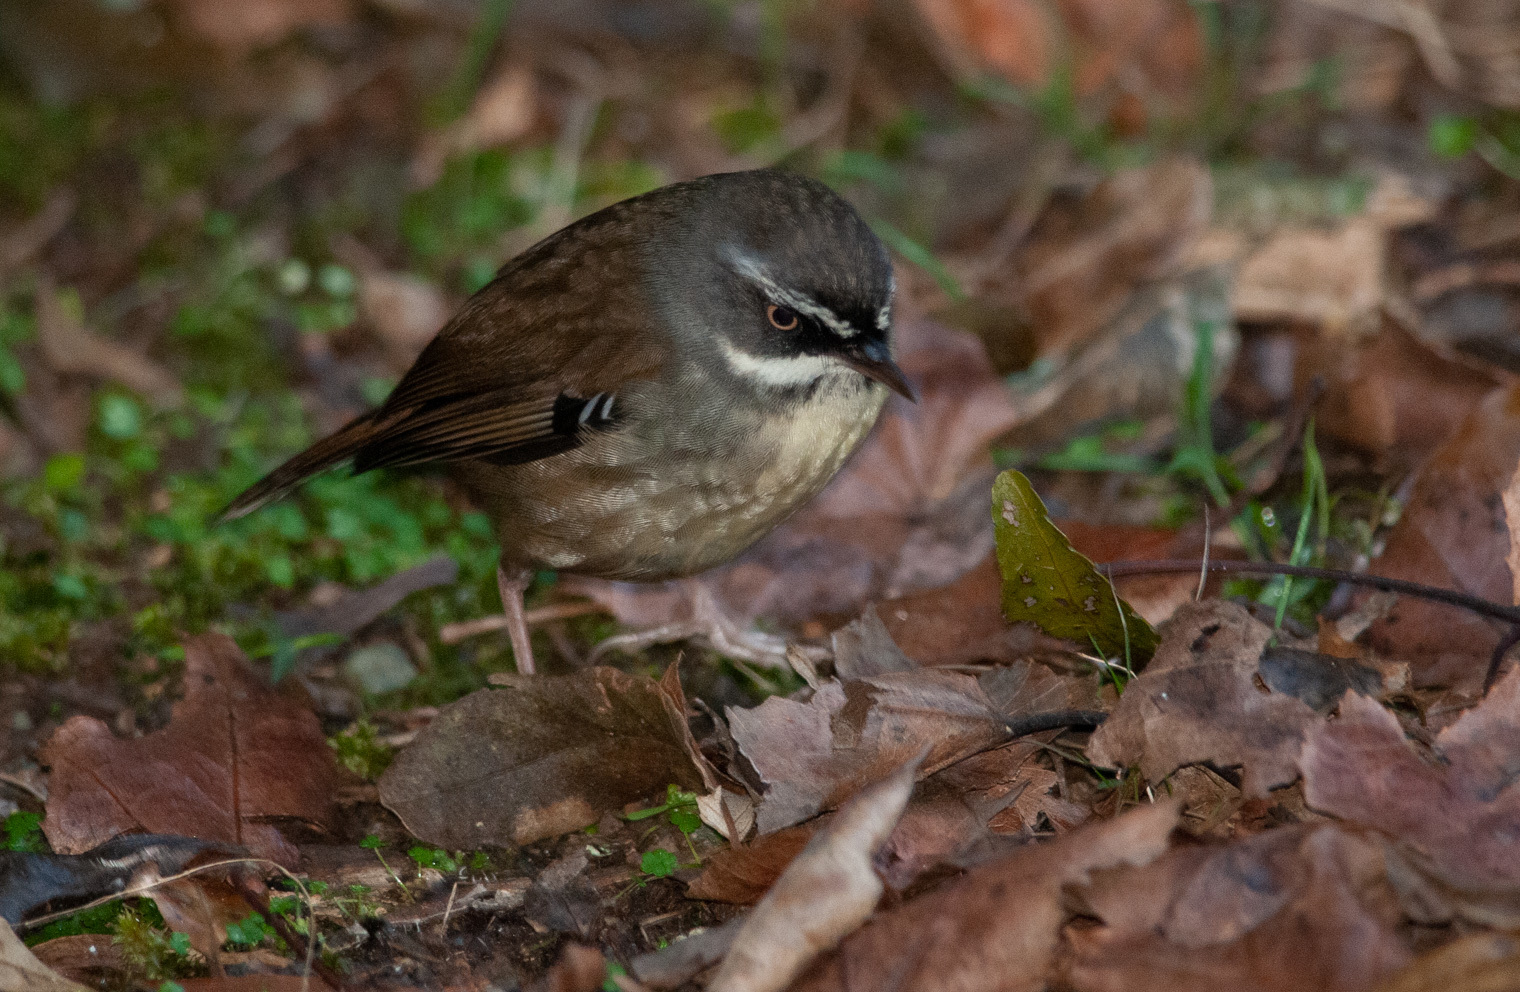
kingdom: Animalia
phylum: Chordata
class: Aves
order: Passeriformes
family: Acanthizidae
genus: Sericornis
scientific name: Sericornis frontalis
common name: White-browed scrubwren
